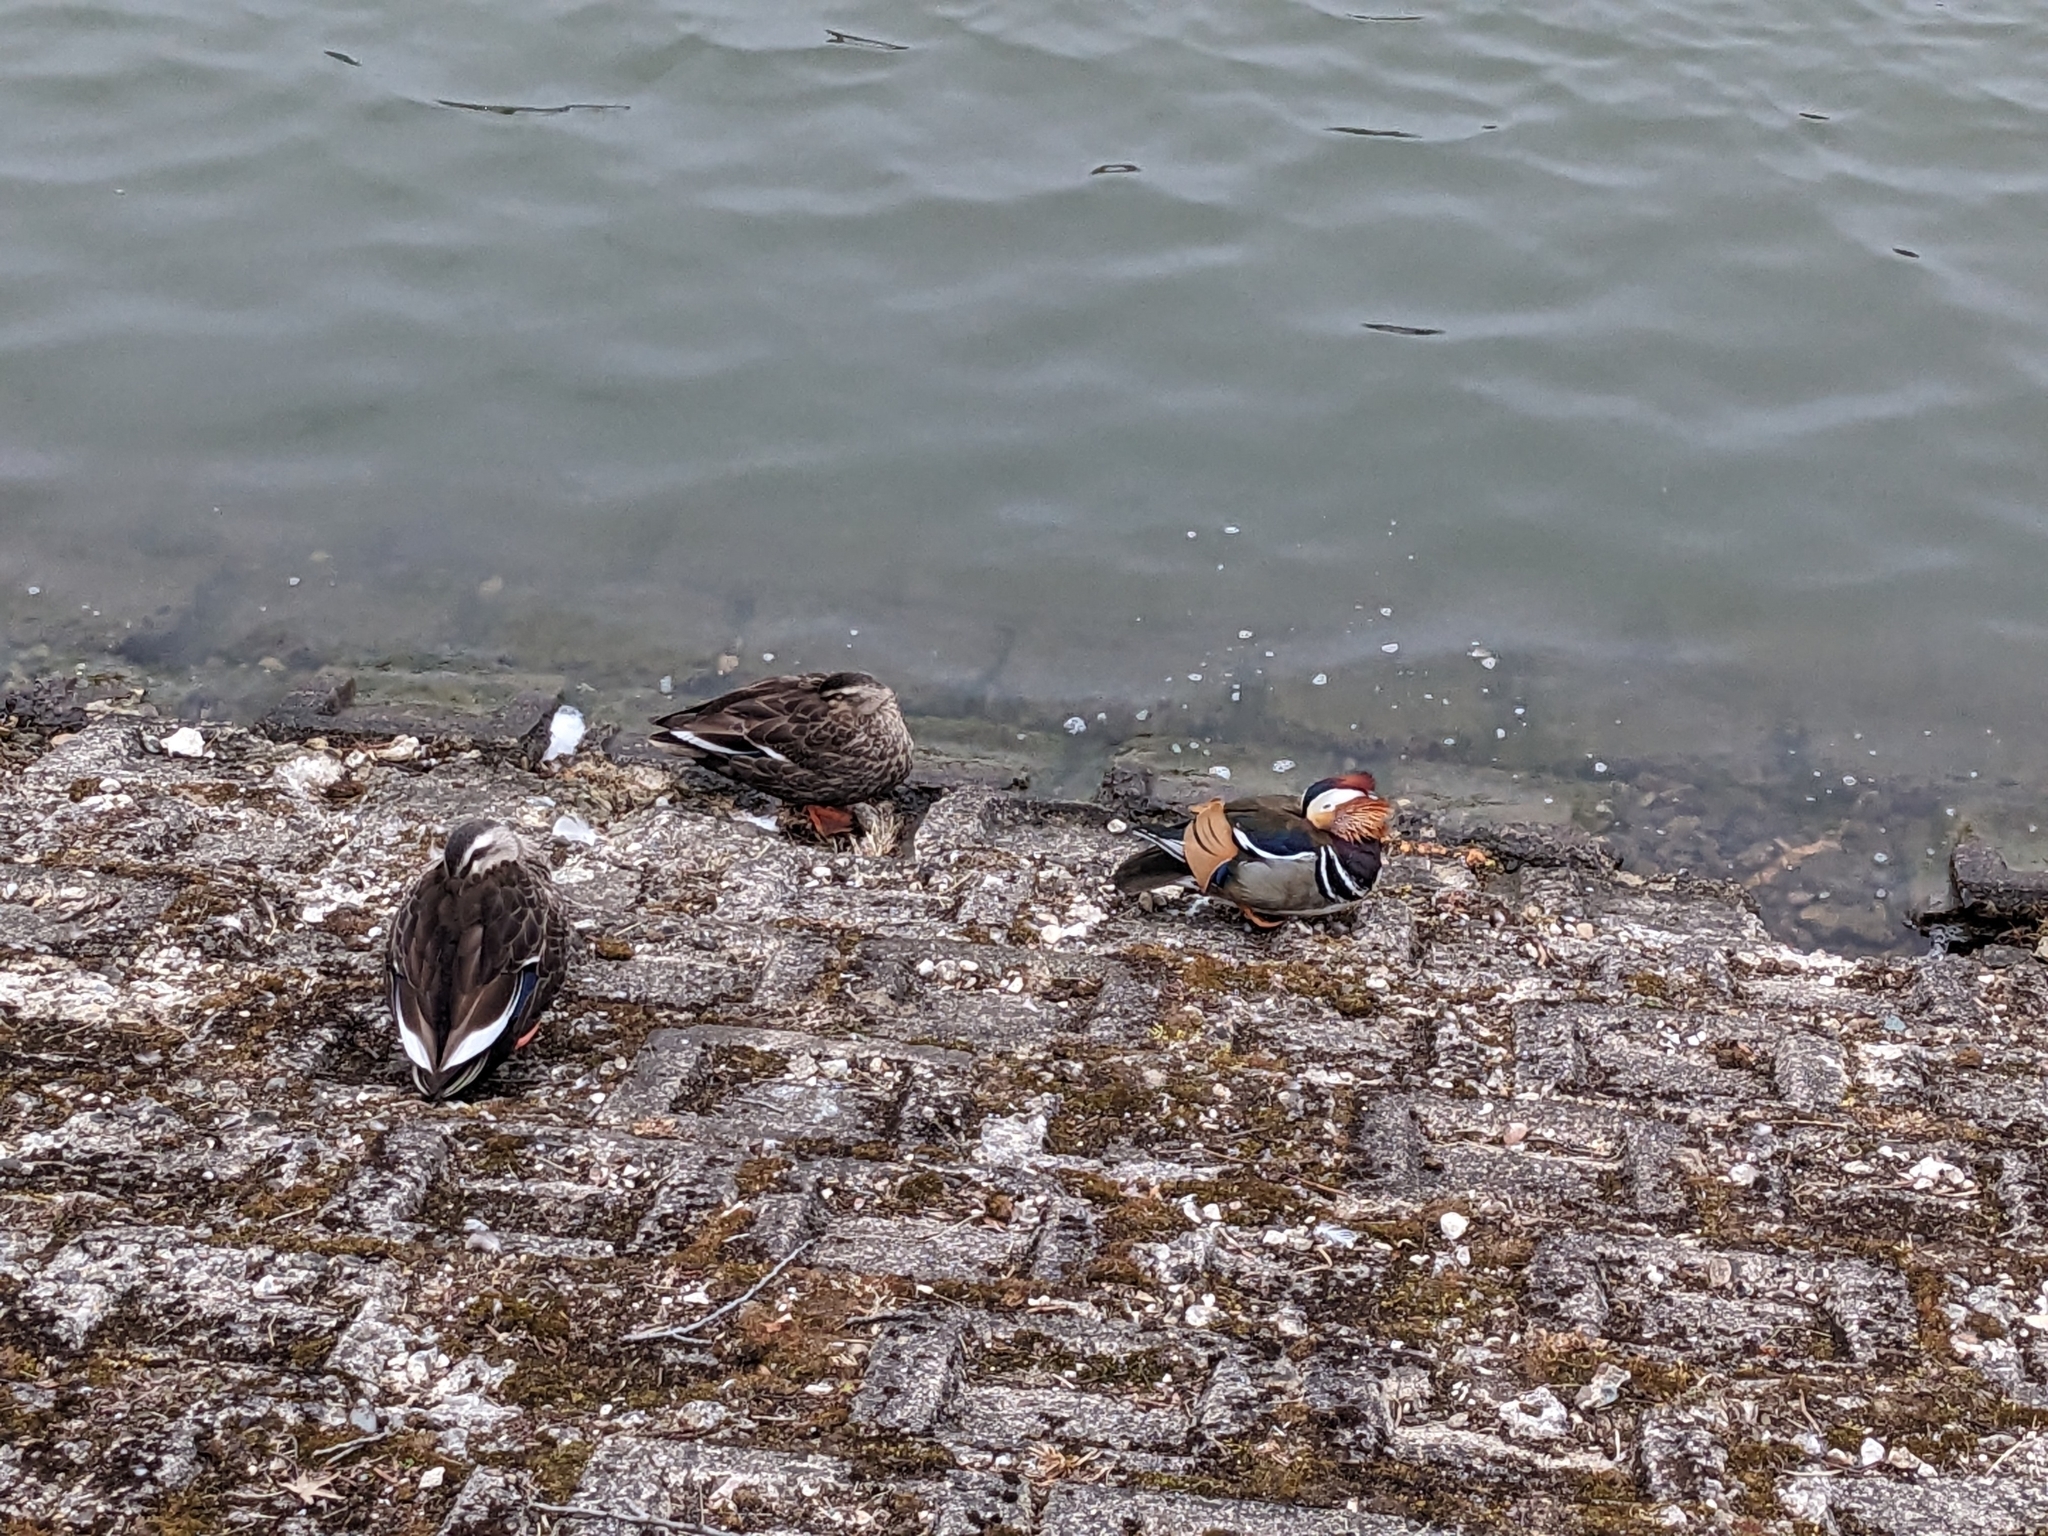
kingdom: Animalia
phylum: Chordata
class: Aves
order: Anseriformes
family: Anatidae
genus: Aix
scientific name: Aix galericulata
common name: Mandarin duck
